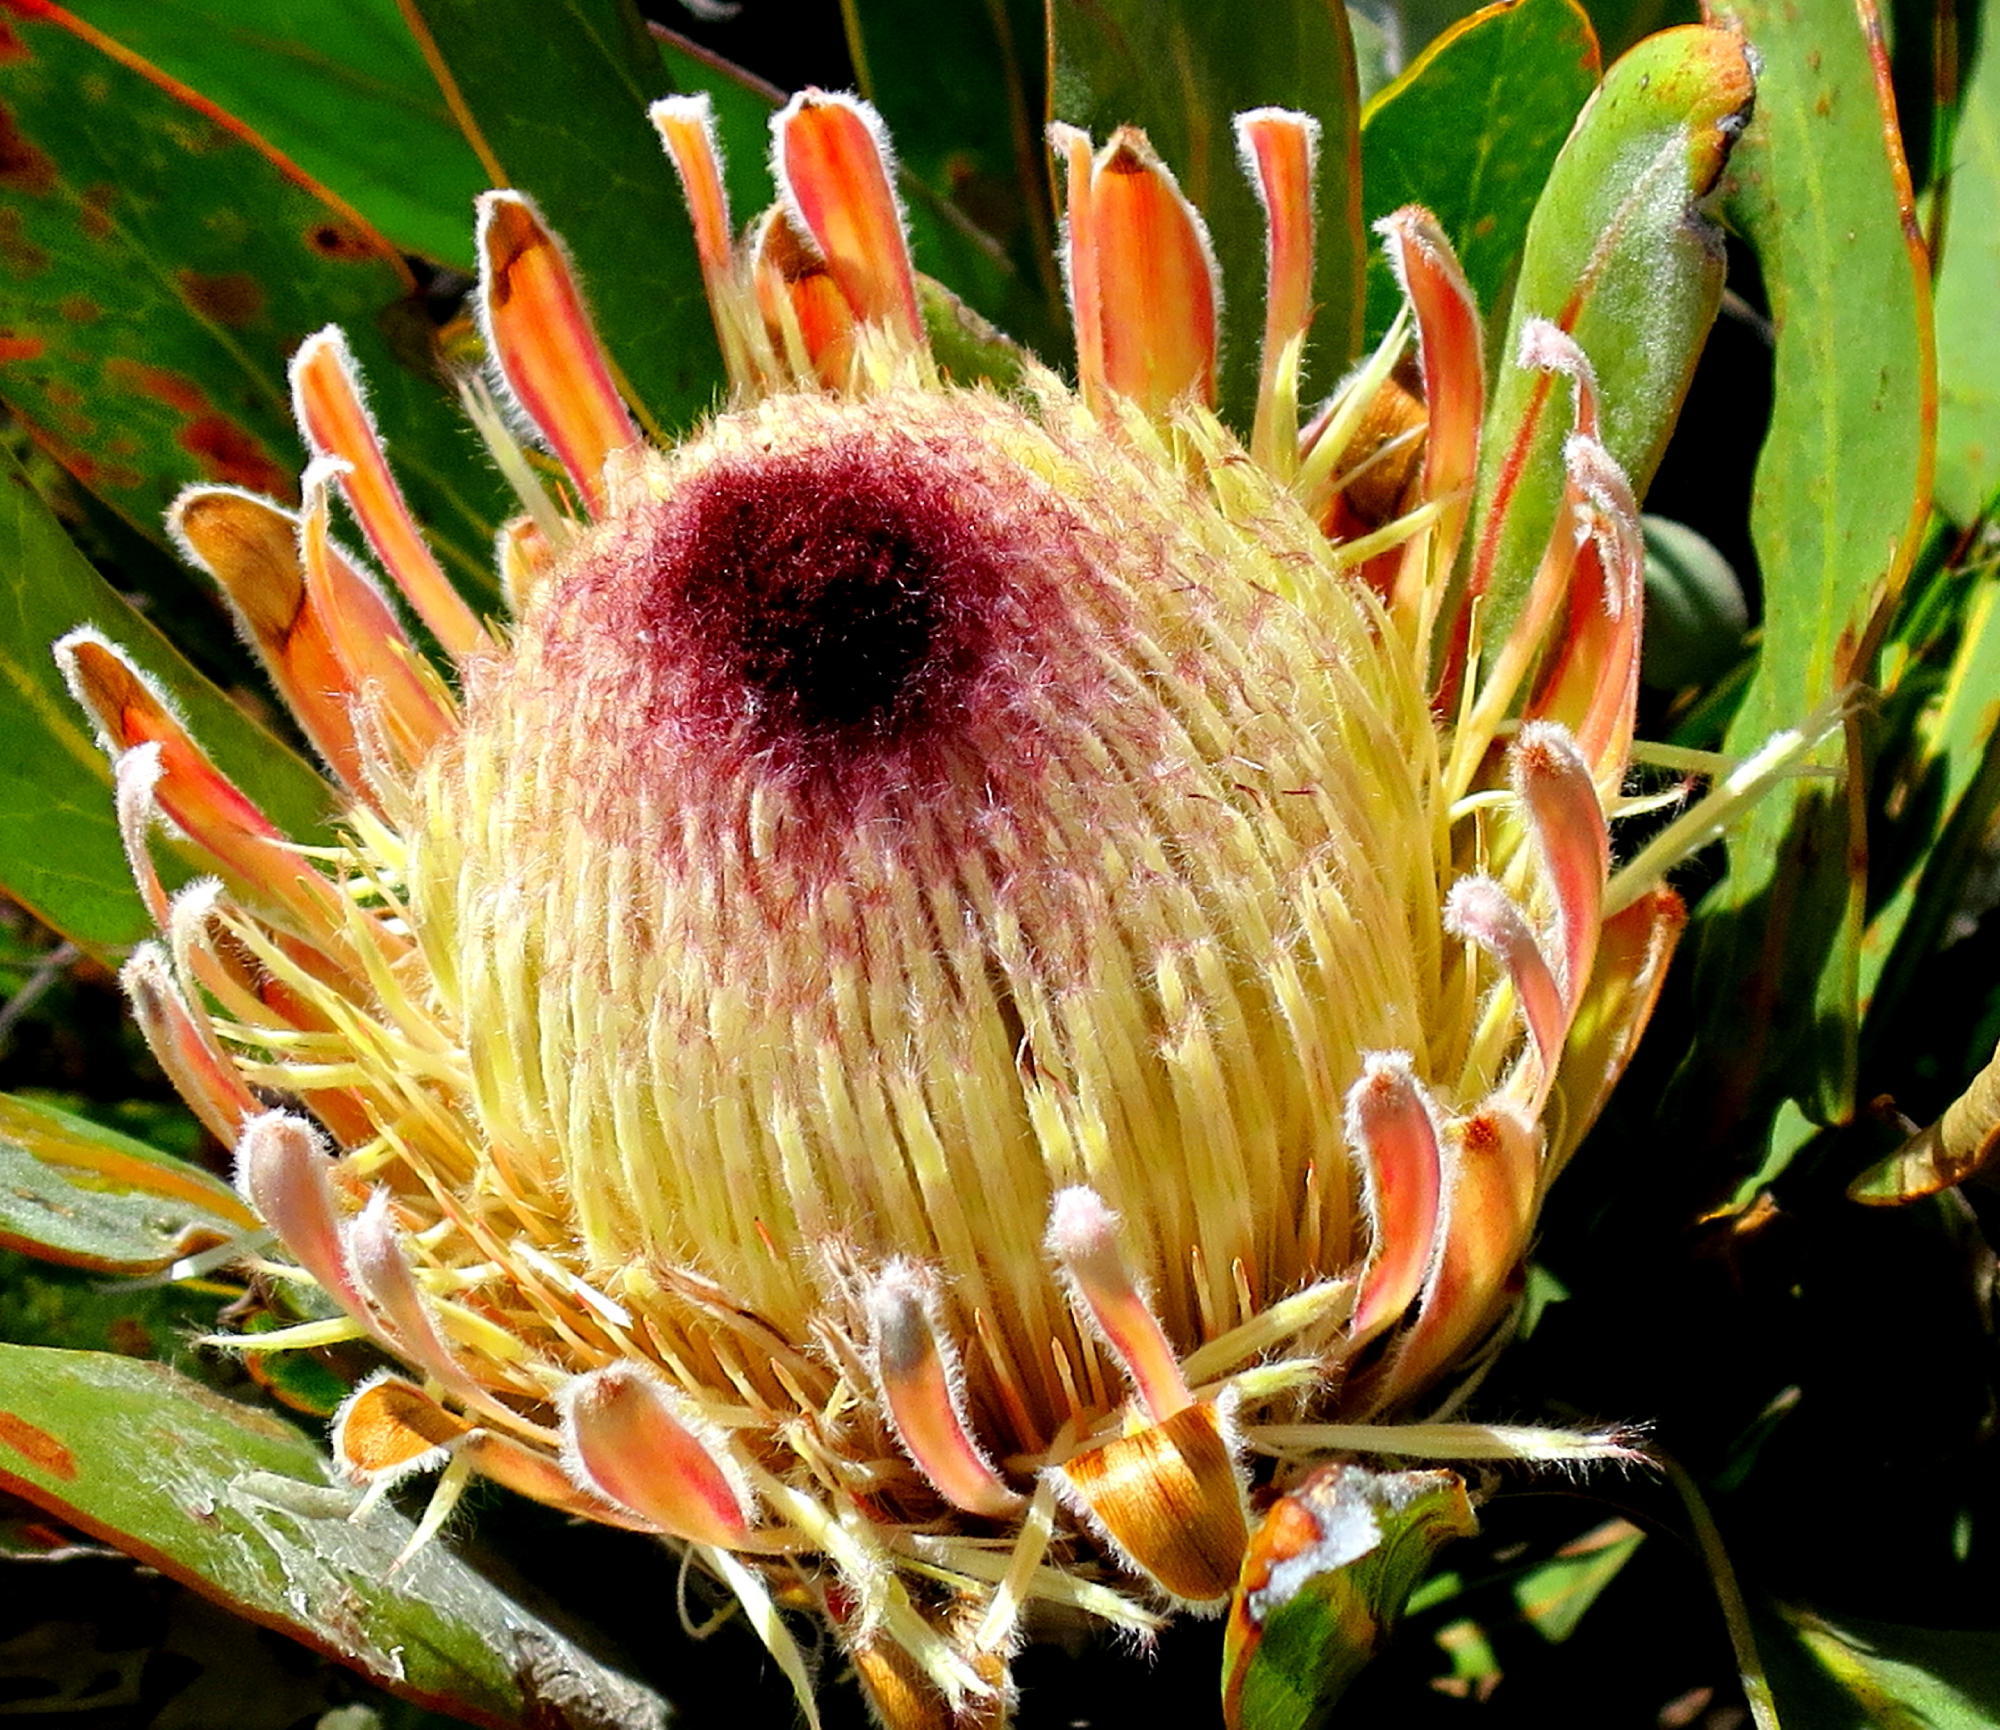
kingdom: Plantae
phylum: Tracheophyta
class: Magnoliopsida
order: Proteales
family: Proteaceae
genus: Protea
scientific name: Protea lorifolia
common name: Strap-leaved protea
